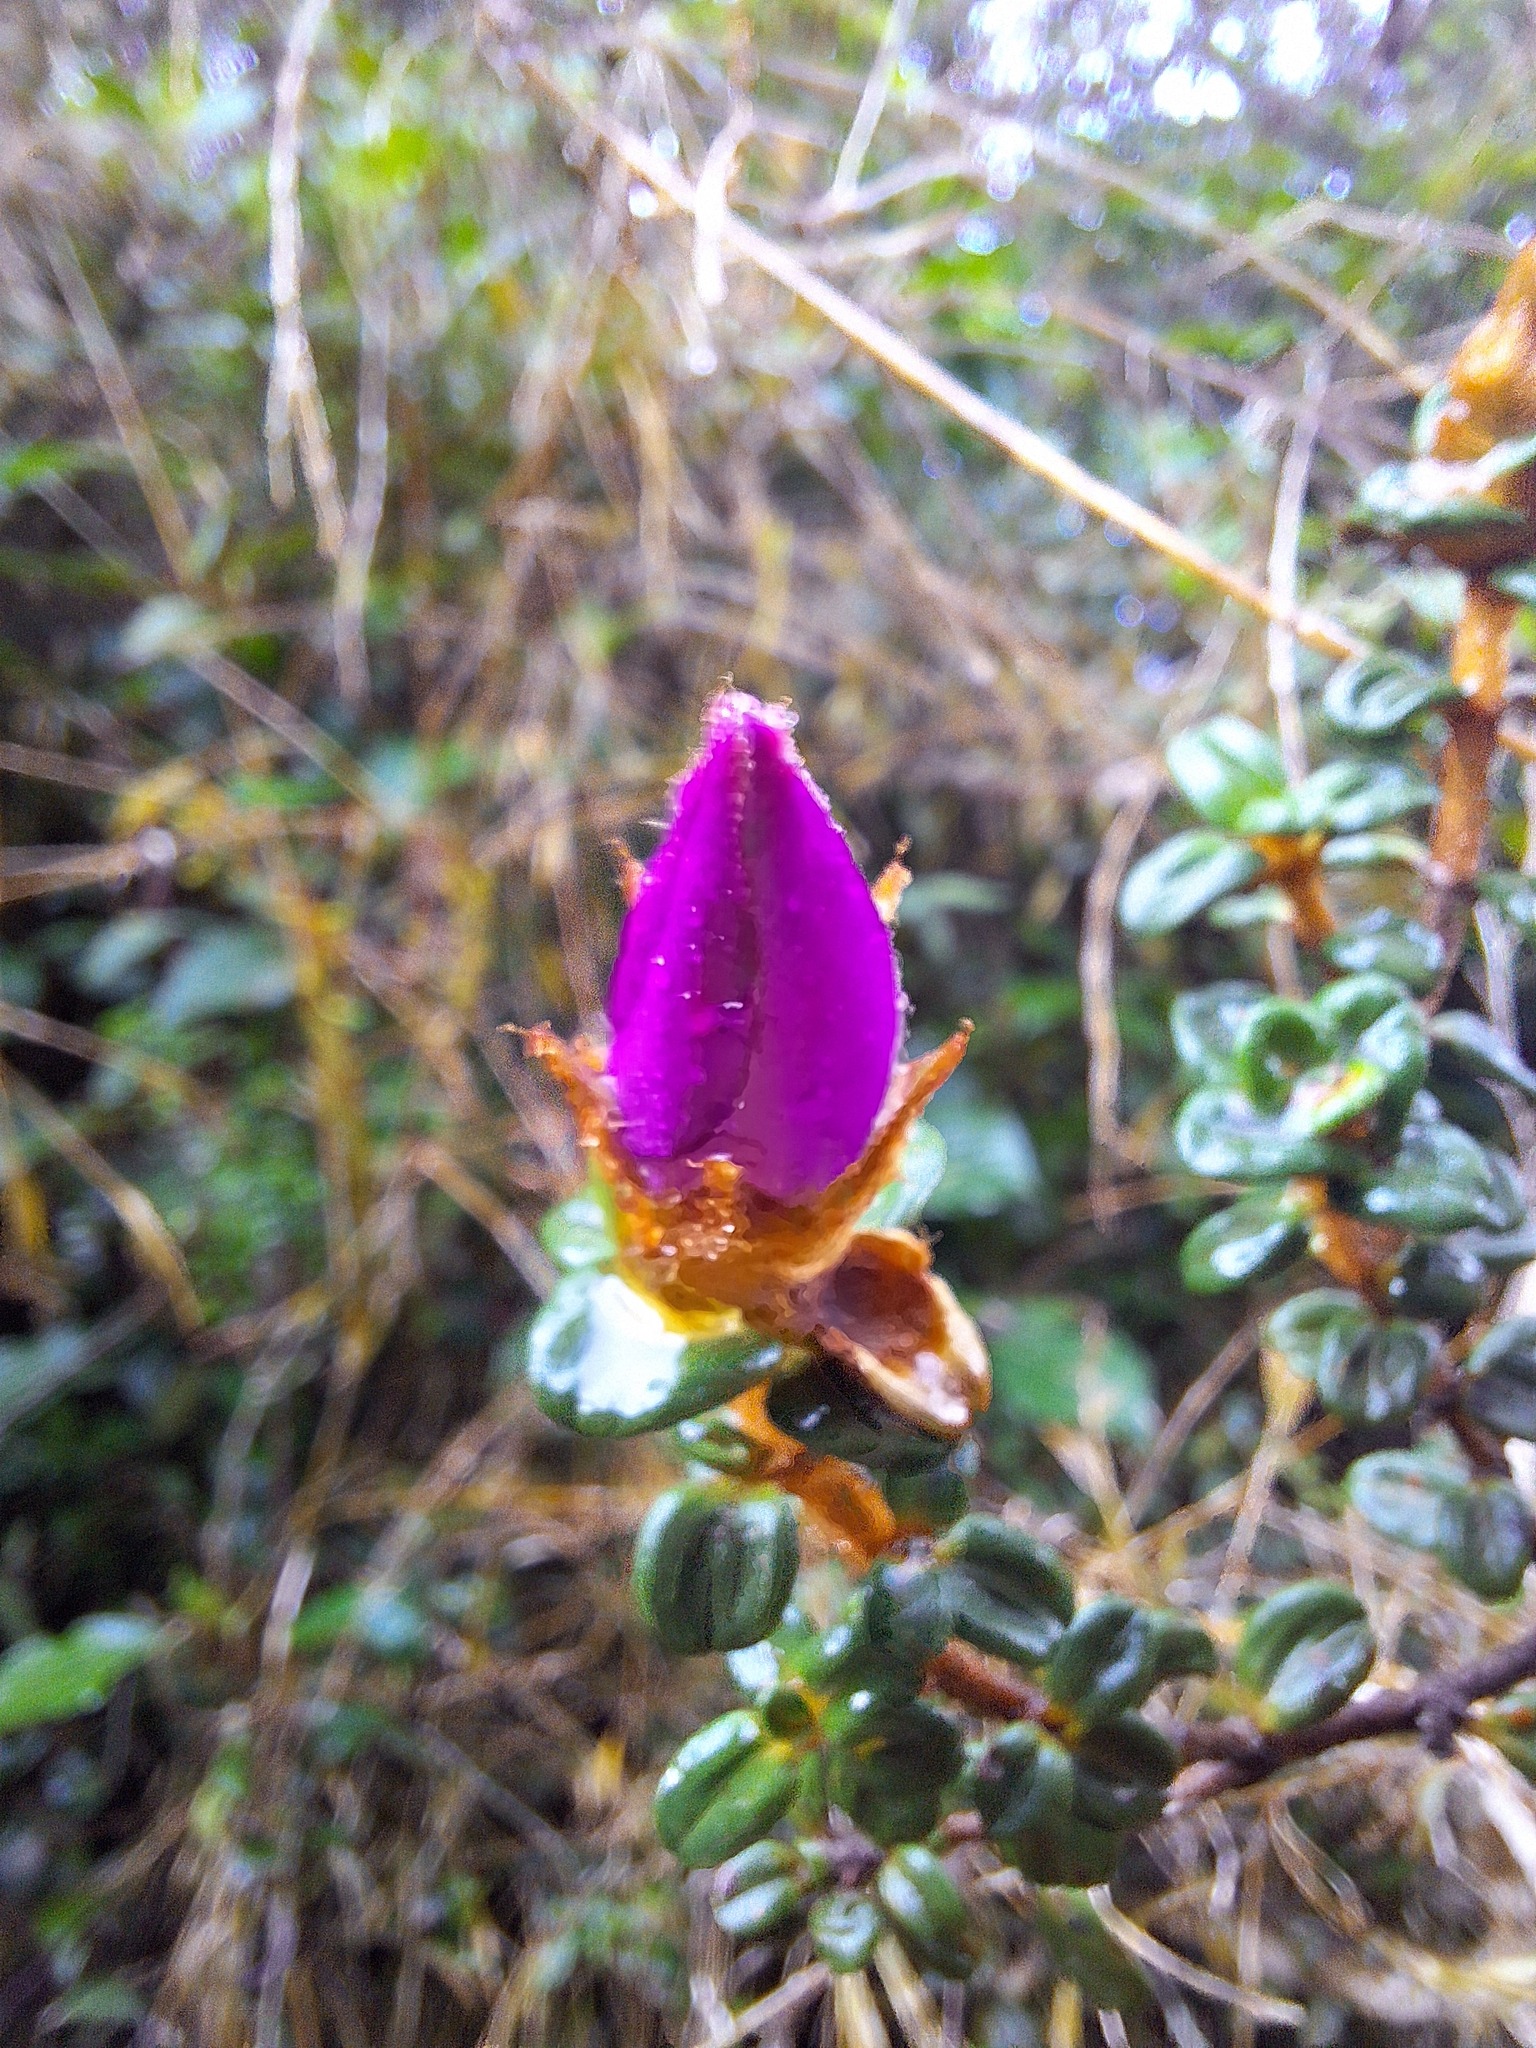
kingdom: Plantae
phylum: Tracheophyta
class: Magnoliopsida
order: Myrtales
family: Melastomataceae
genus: Osbeckia
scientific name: Osbeckia lanata
